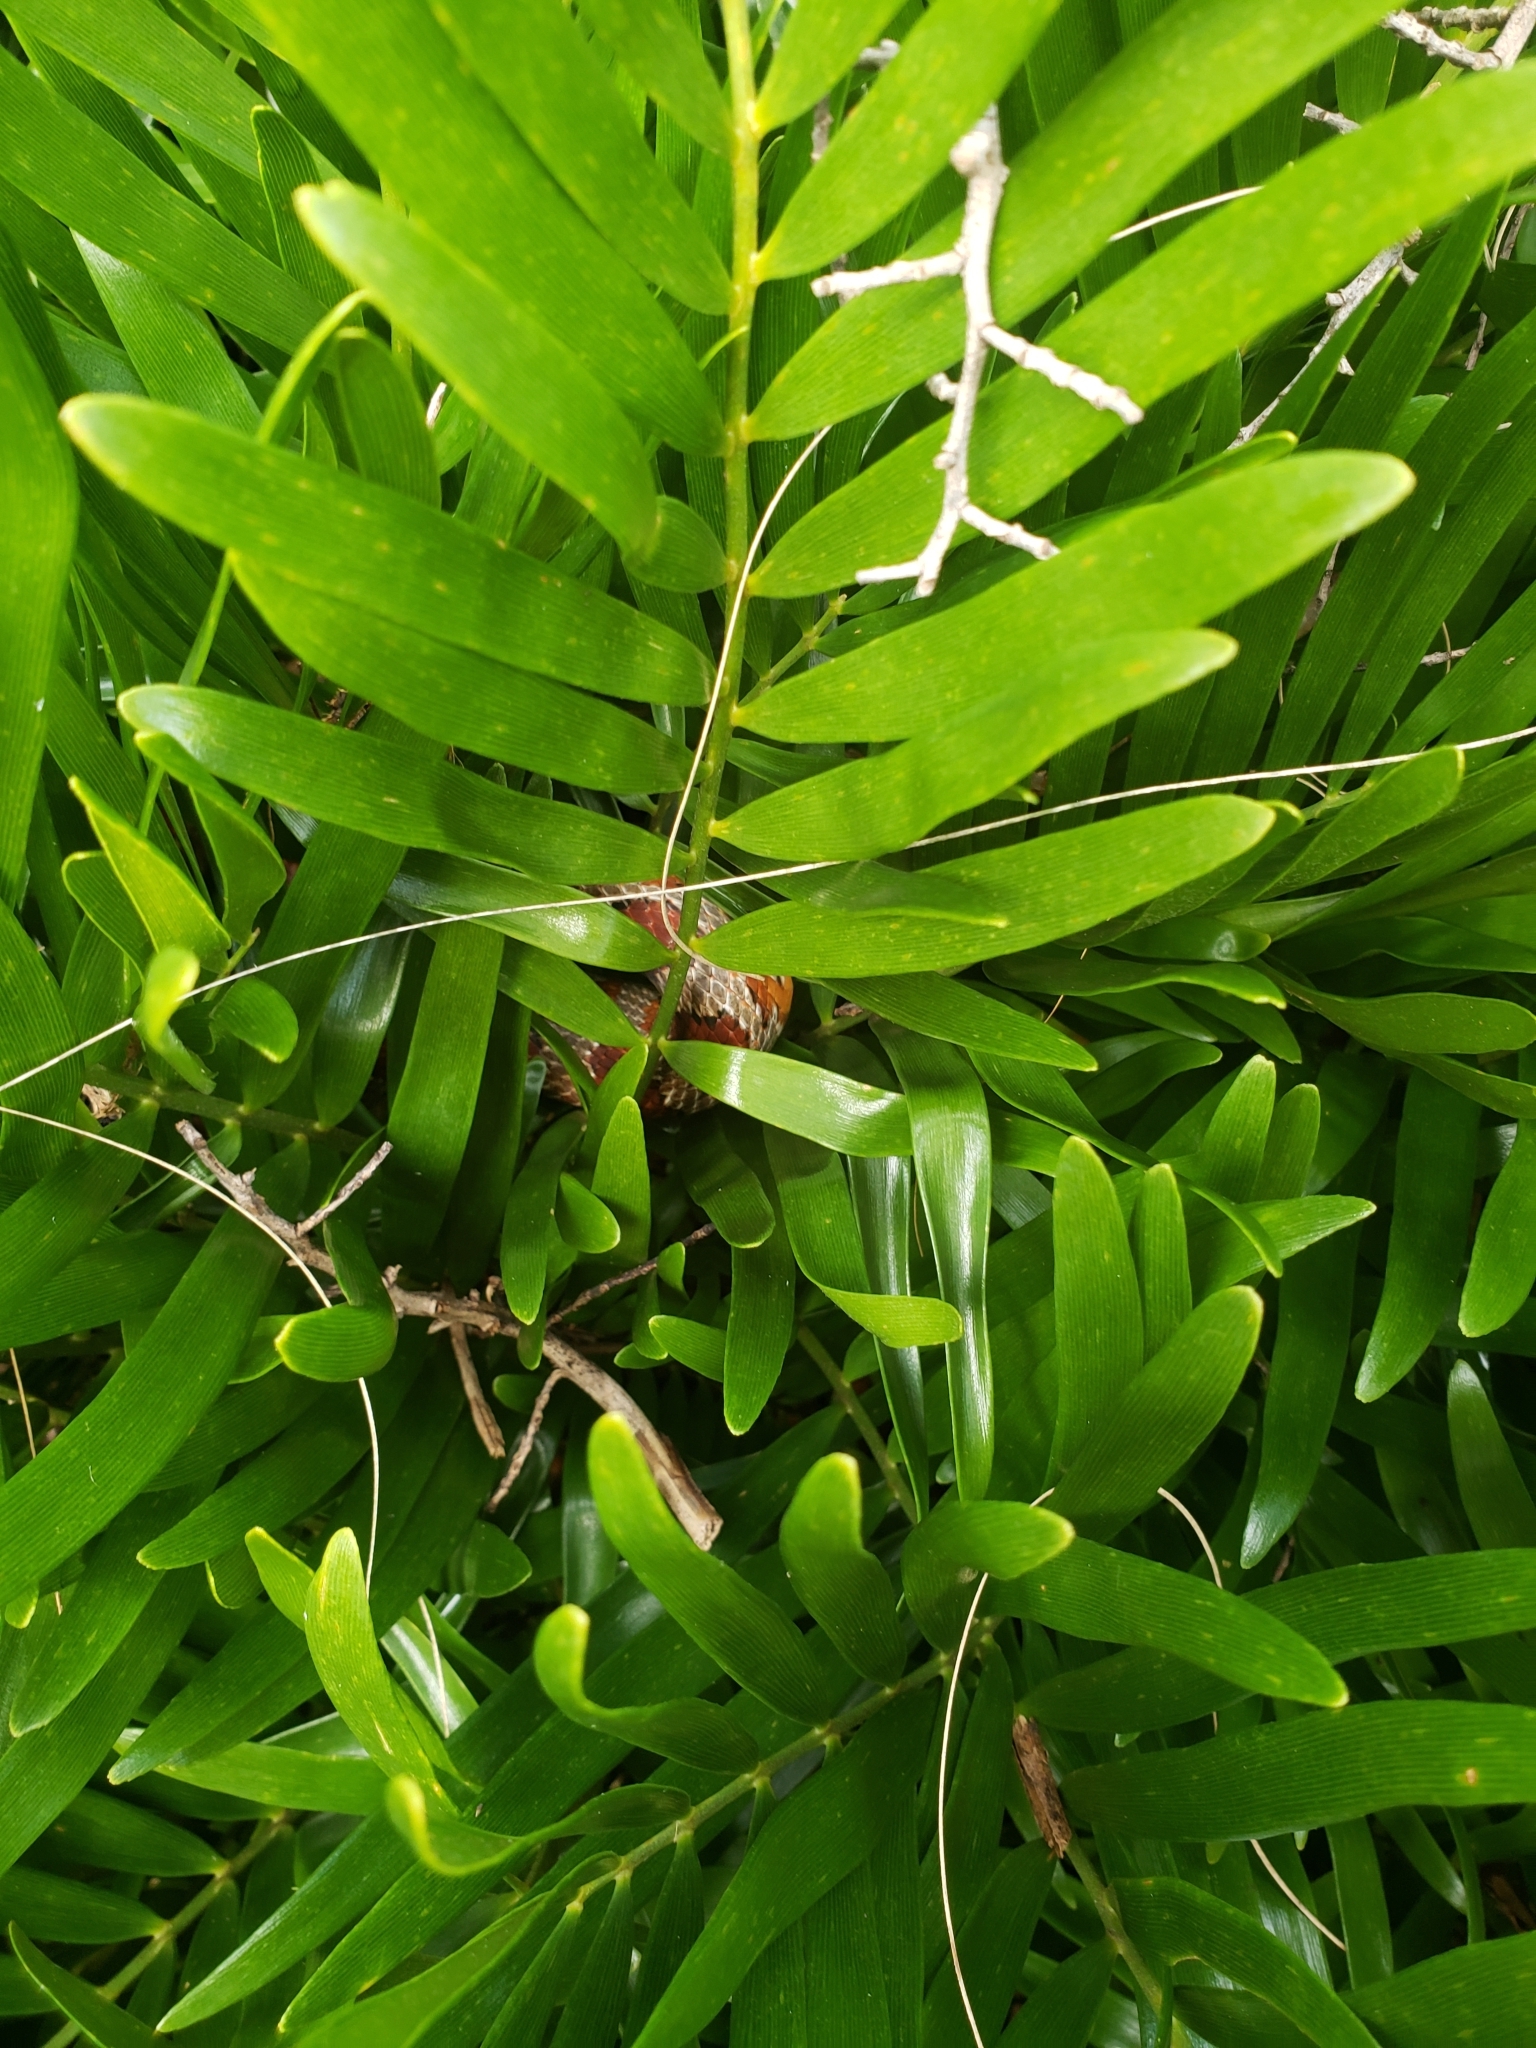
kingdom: Animalia
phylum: Chordata
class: Squamata
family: Colubridae
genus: Pantherophis
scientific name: Pantherophis guttatus
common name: Red cornsnake
